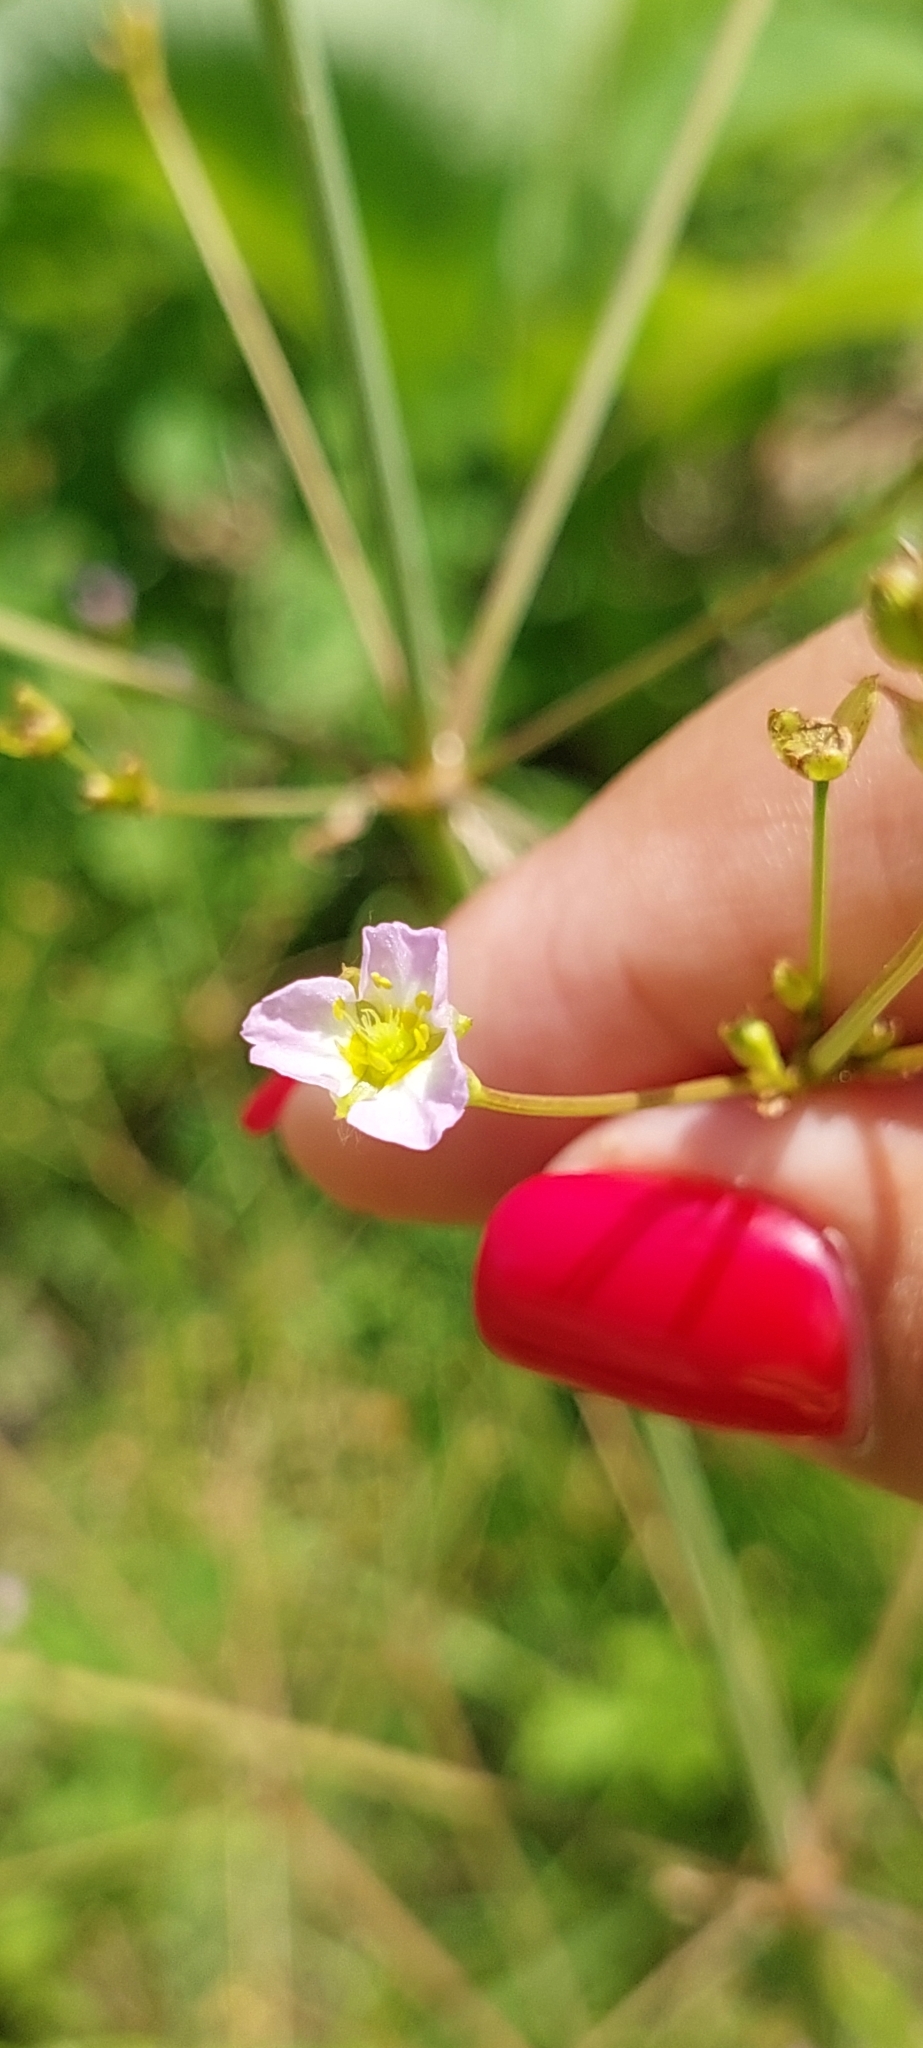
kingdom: Plantae
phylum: Tracheophyta
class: Liliopsida
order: Alismatales
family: Alismataceae
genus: Alisma
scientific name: Alisma plantago-aquatica
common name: Water-plantain
